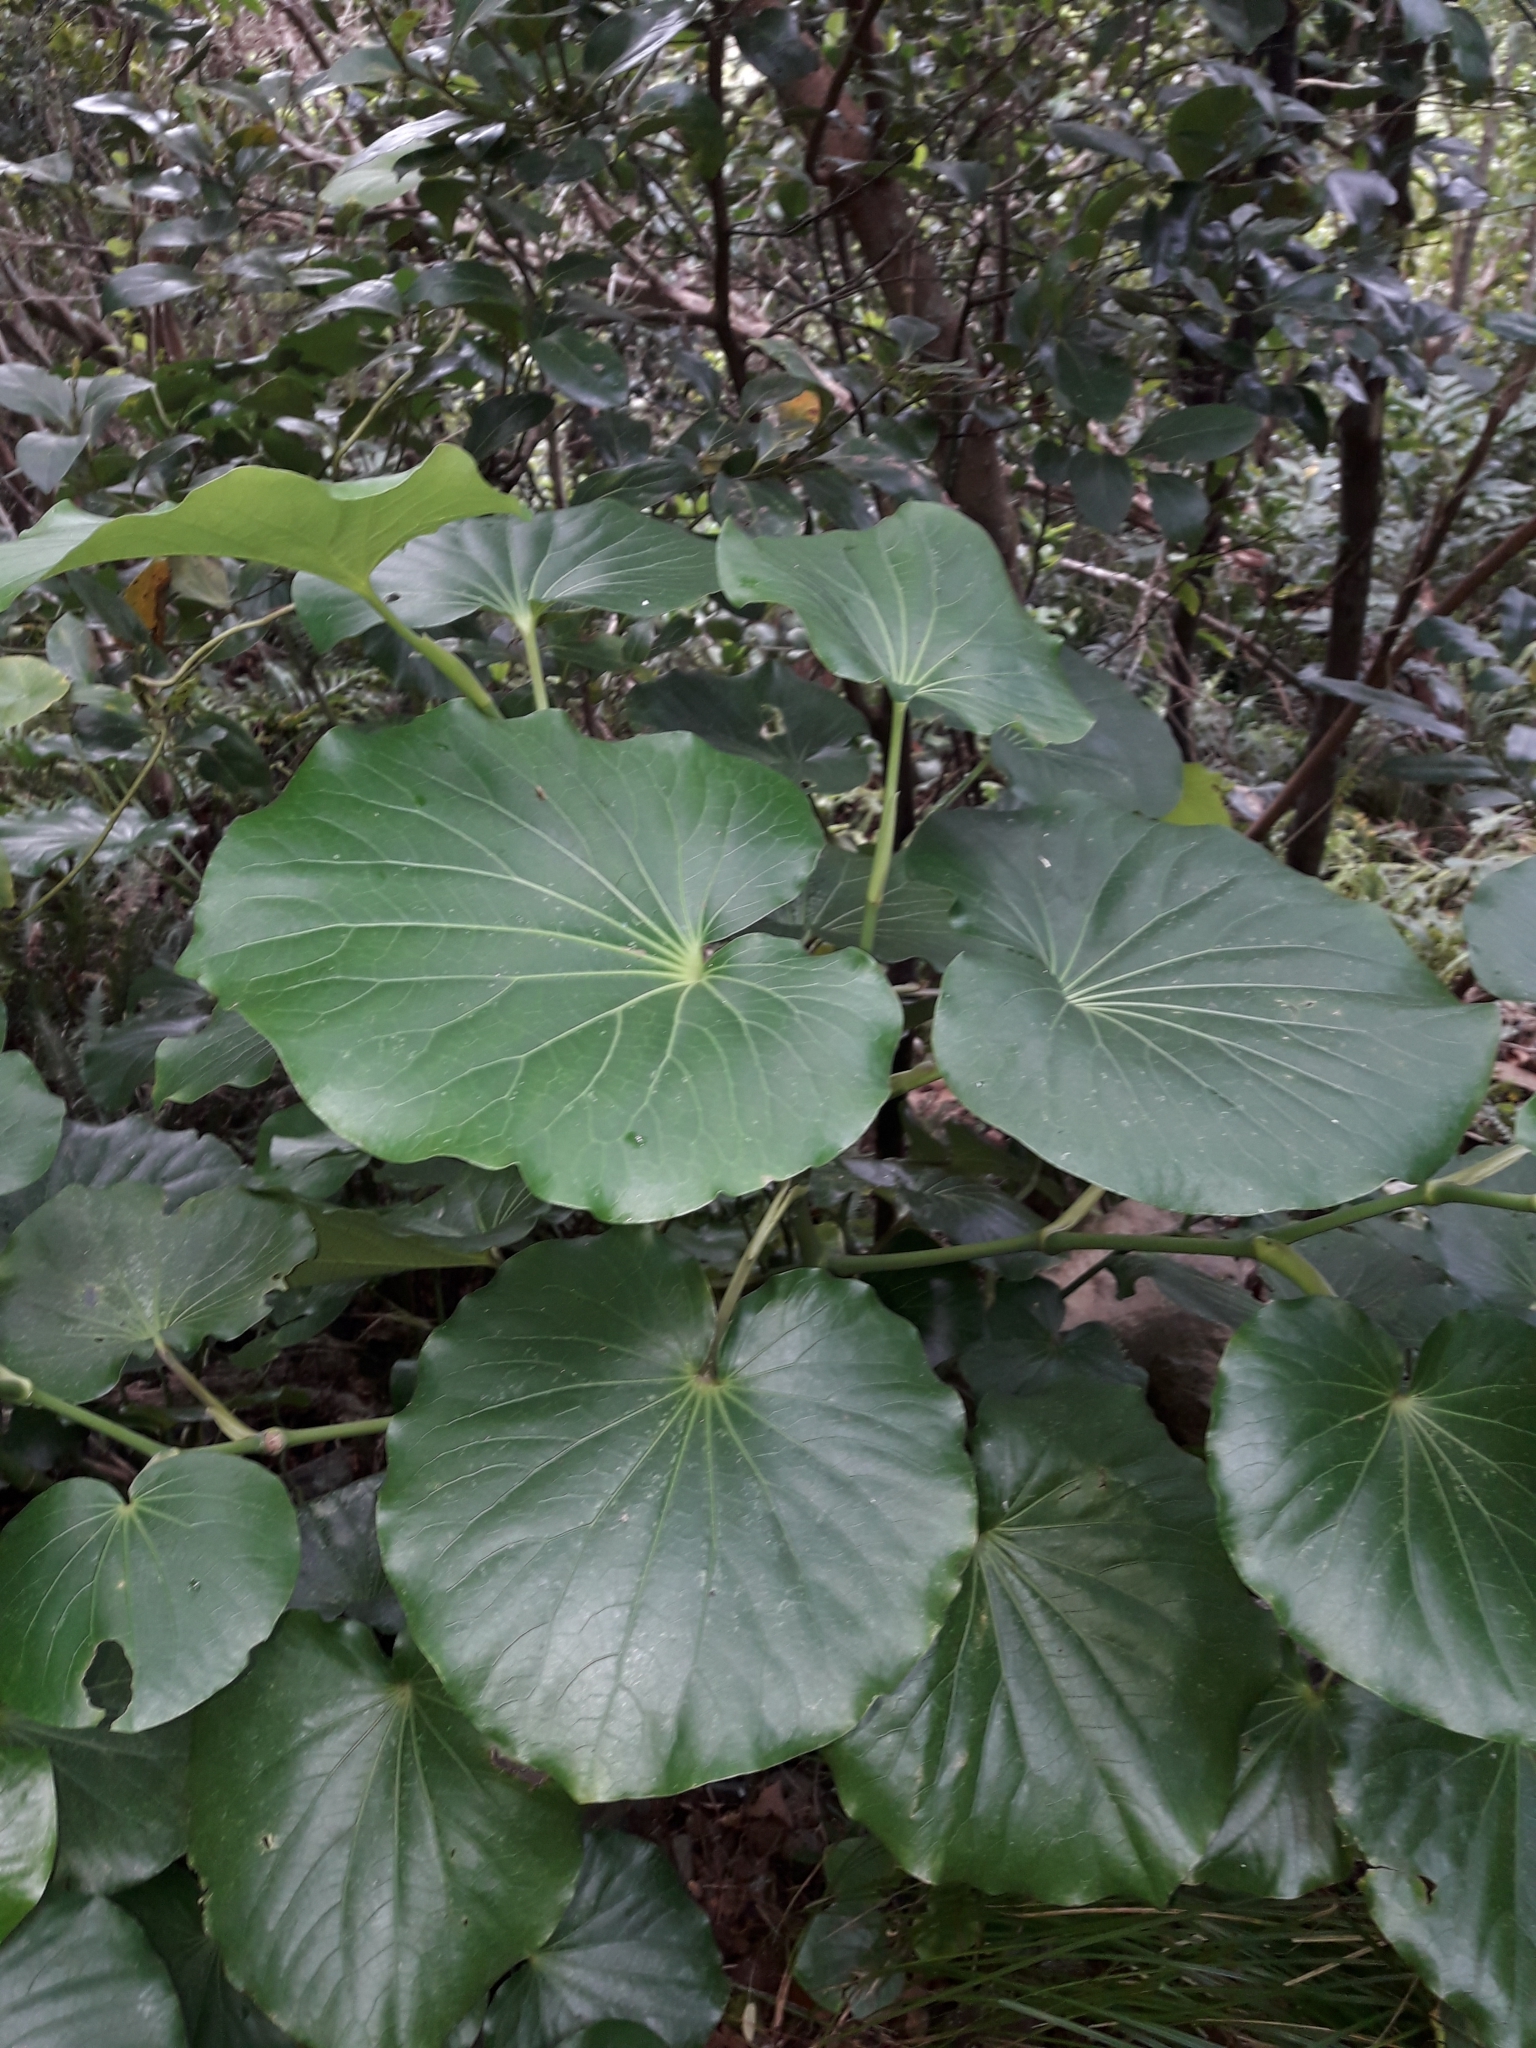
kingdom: Plantae
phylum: Tracheophyta
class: Magnoliopsida
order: Piperales
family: Piperaceae
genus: Macropiper
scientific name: Macropiper hooglandii
